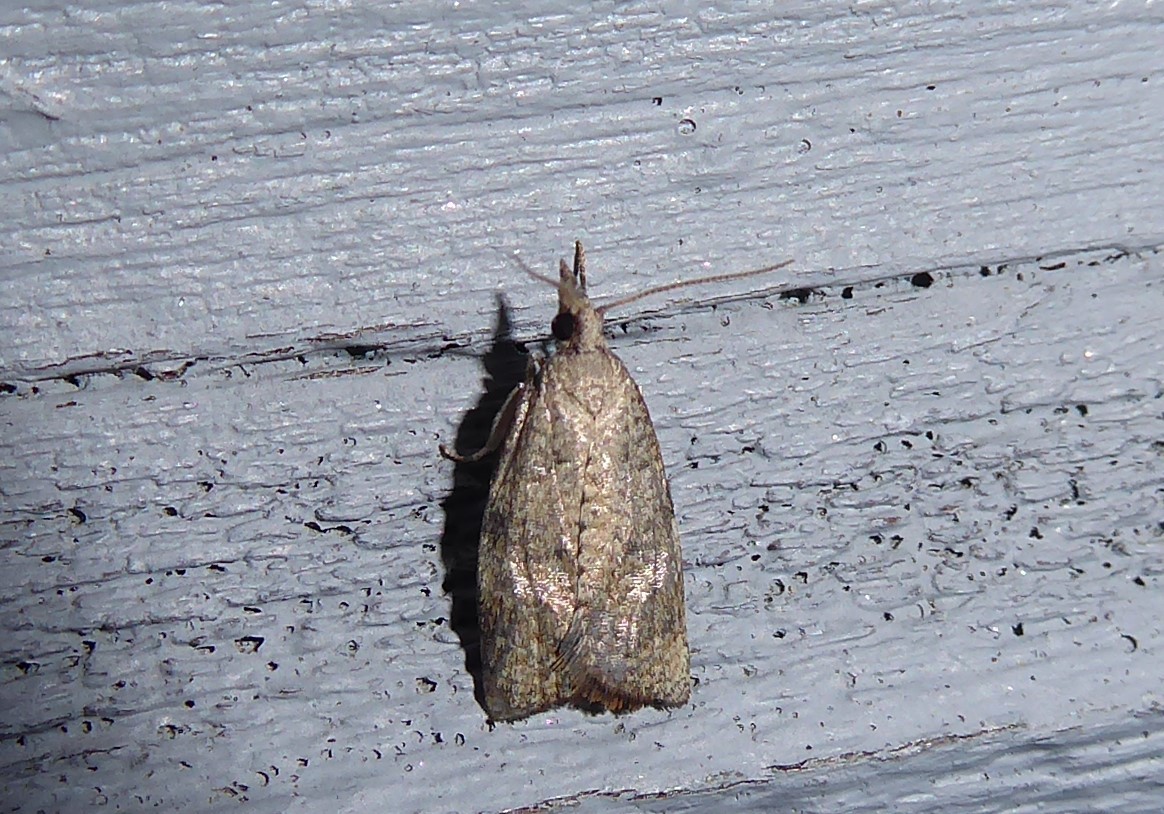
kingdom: Animalia
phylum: Arthropoda
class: Insecta
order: Lepidoptera
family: Tortricidae
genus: Catamacta
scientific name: Catamacta gavisana
